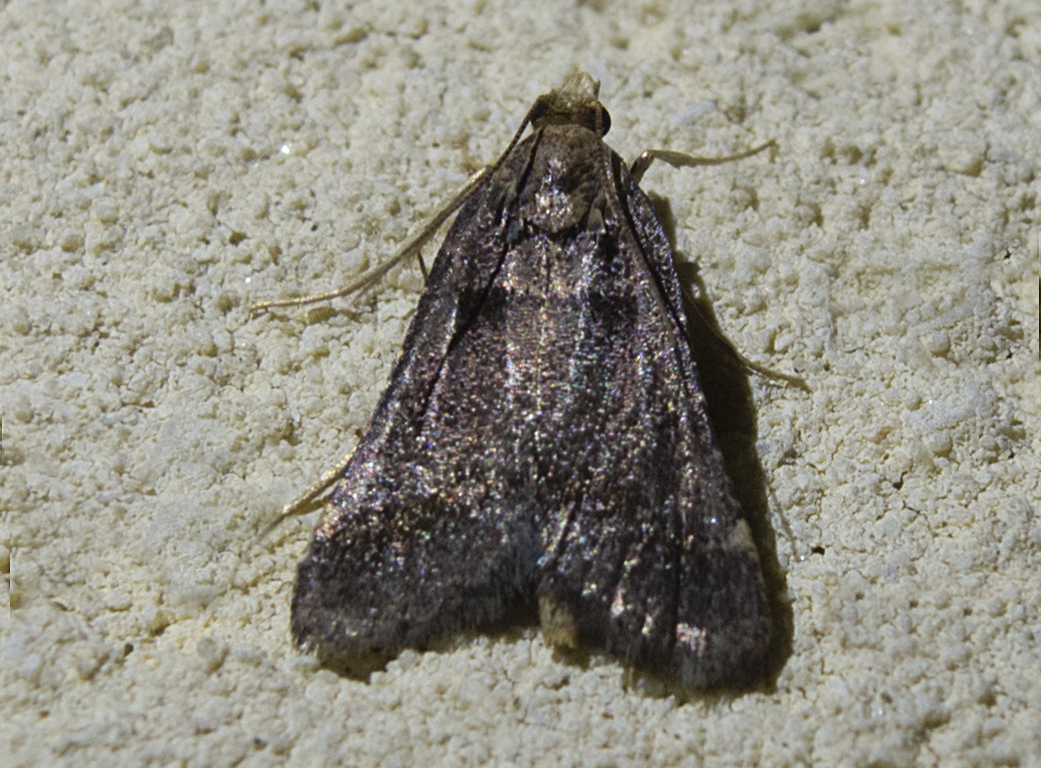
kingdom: Animalia
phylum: Arthropoda
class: Insecta
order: Lepidoptera
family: Pyralidae
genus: Stemmatophora
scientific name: Stemmatophora brunnealis
